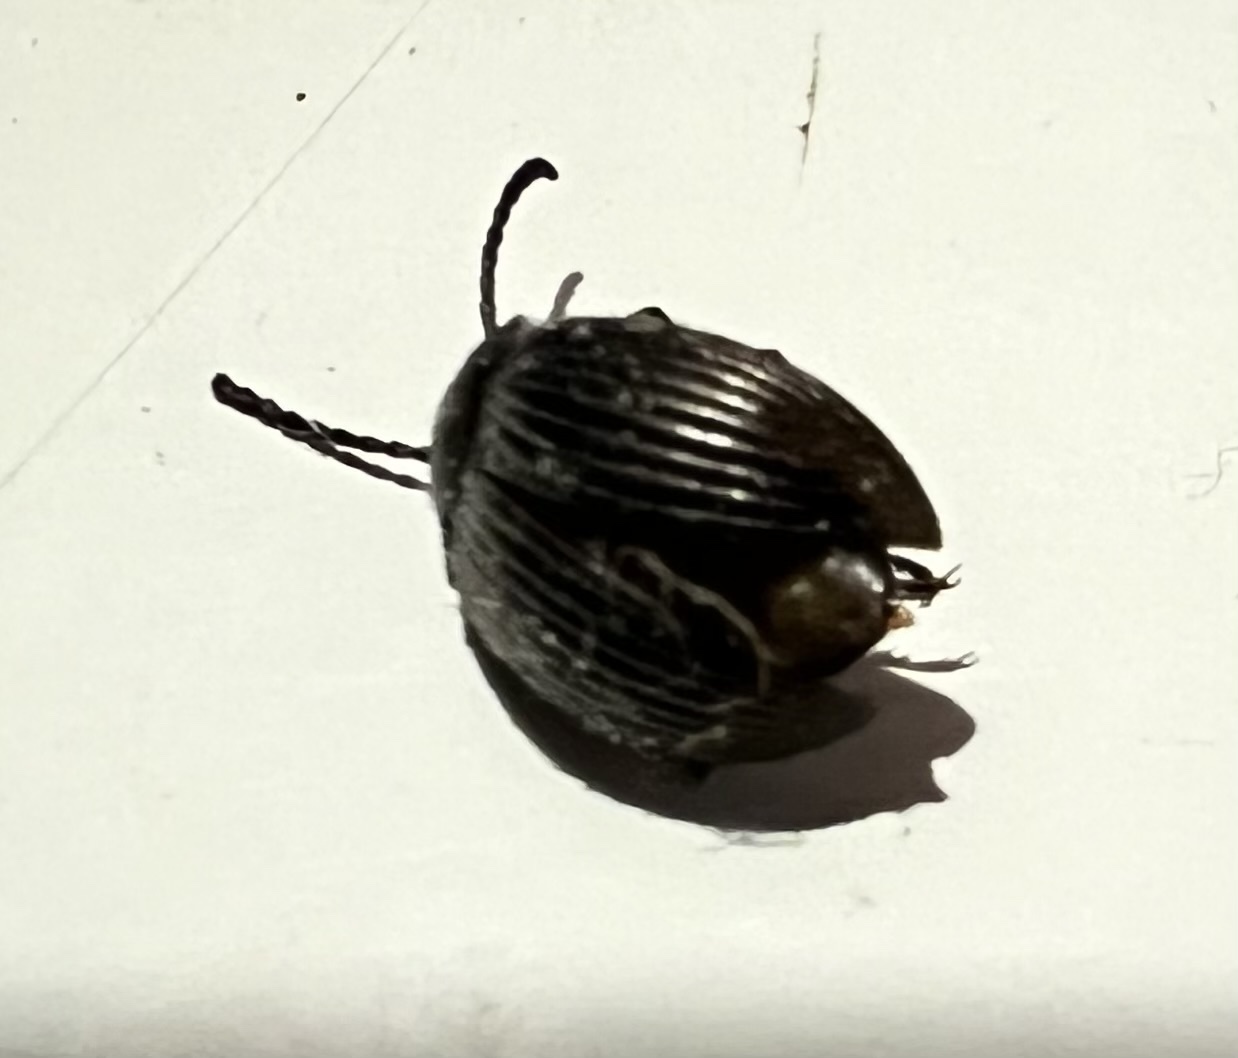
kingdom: Animalia
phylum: Arthropoda
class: Insecta
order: Coleoptera
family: Tenebrionidae
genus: Helops
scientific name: Helops farctus
